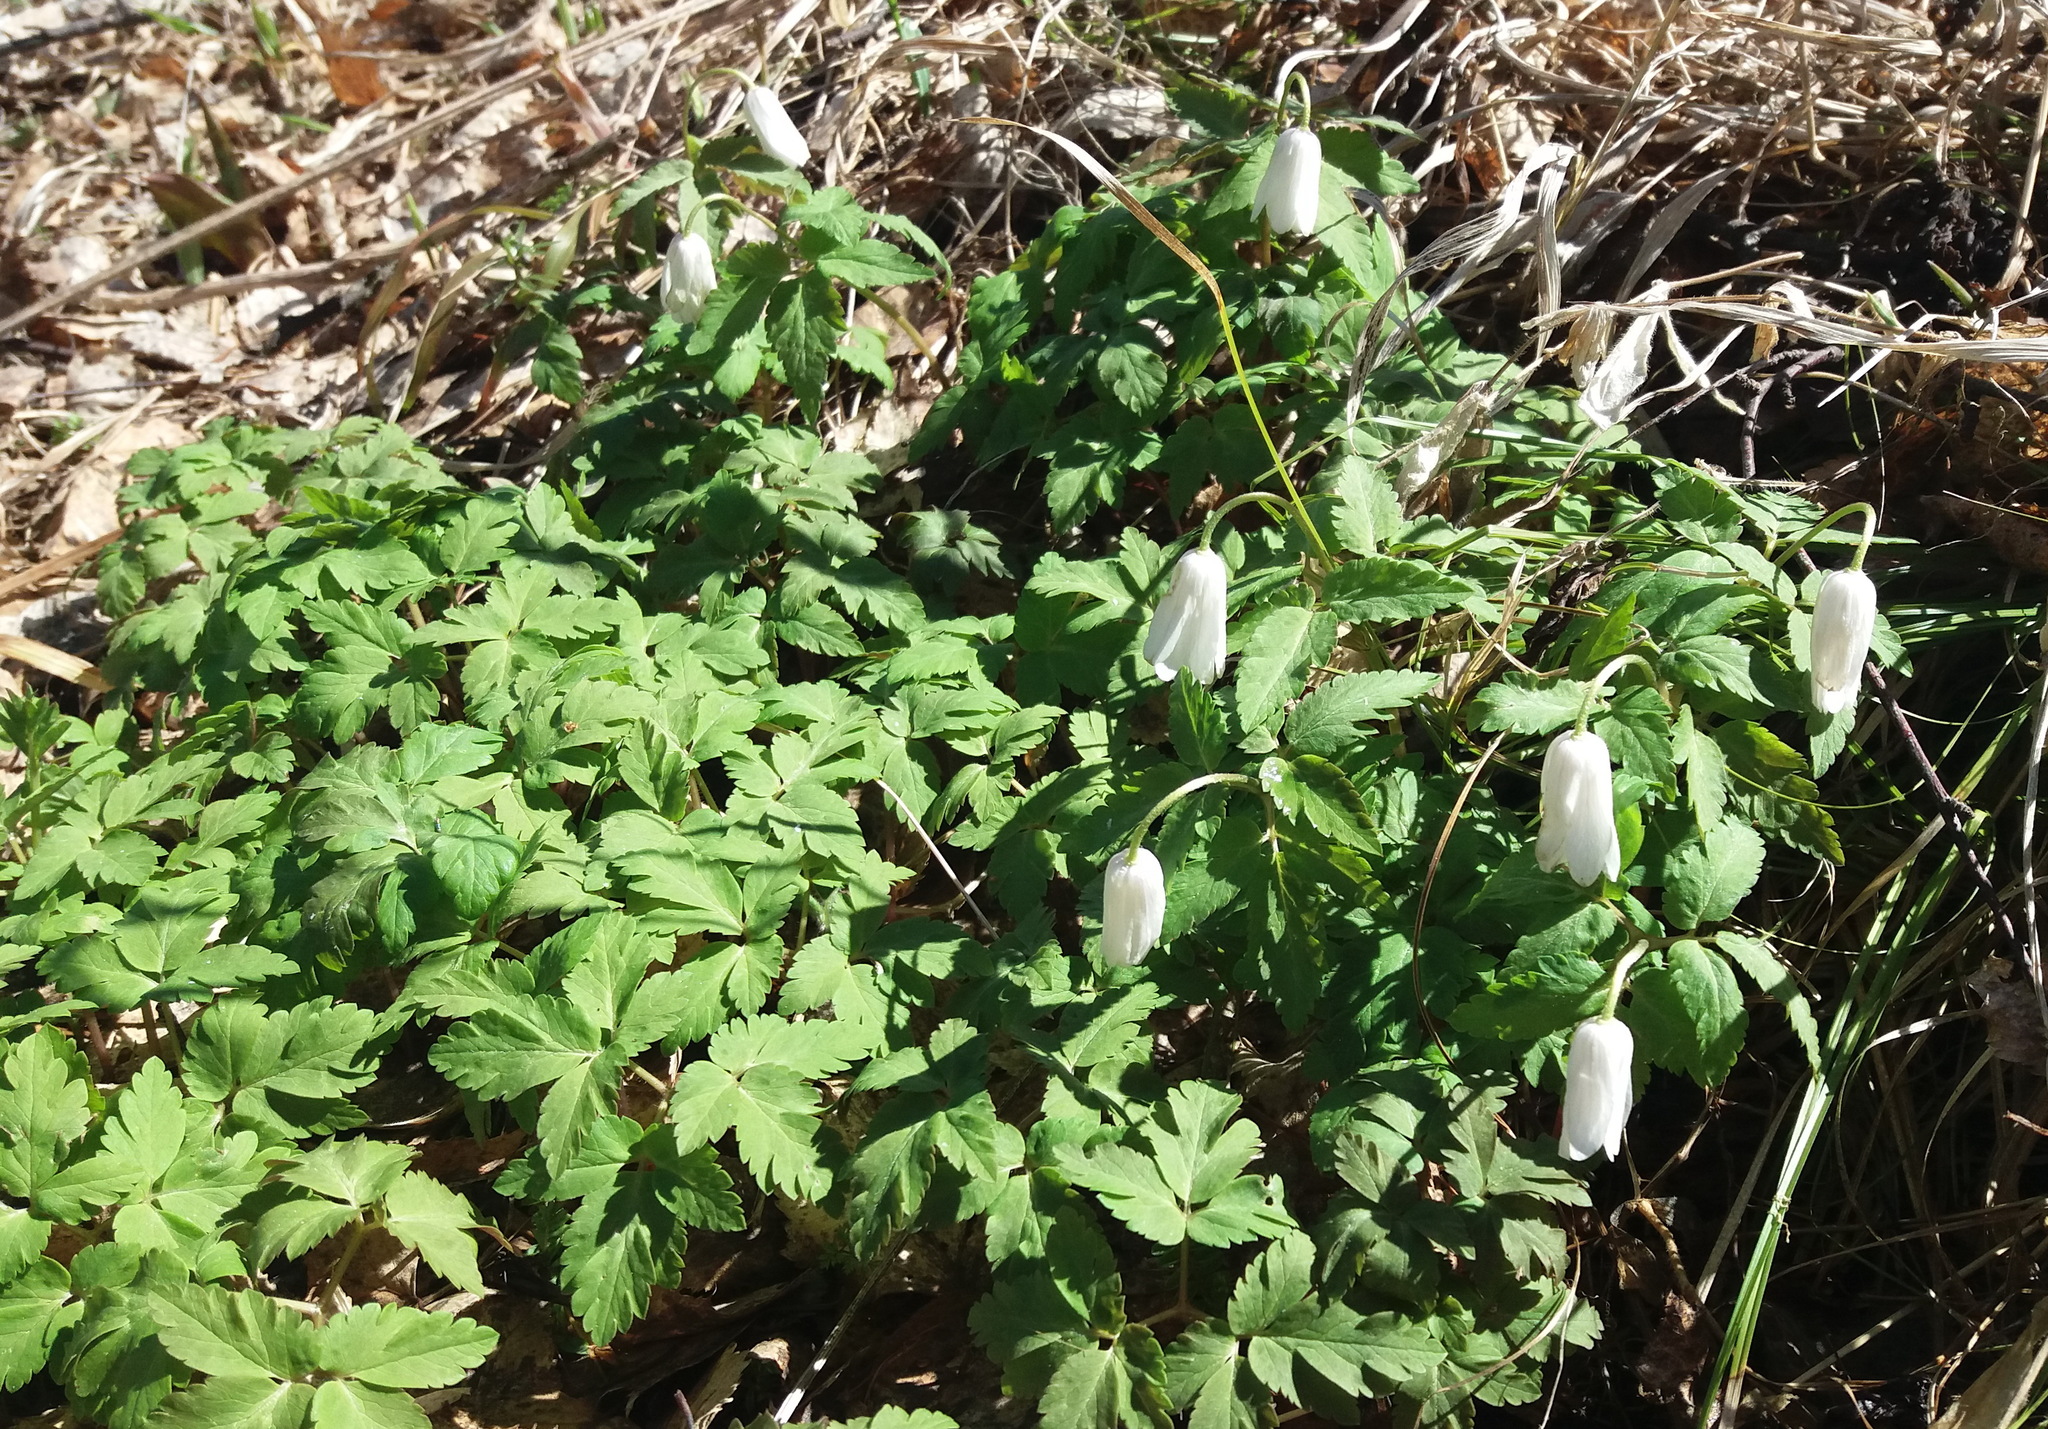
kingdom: Plantae
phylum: Tracheophyta
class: Magnoliopsida
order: Ranunculales
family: Ranunculaceae
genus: Anemone
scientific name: Anemone altaica
